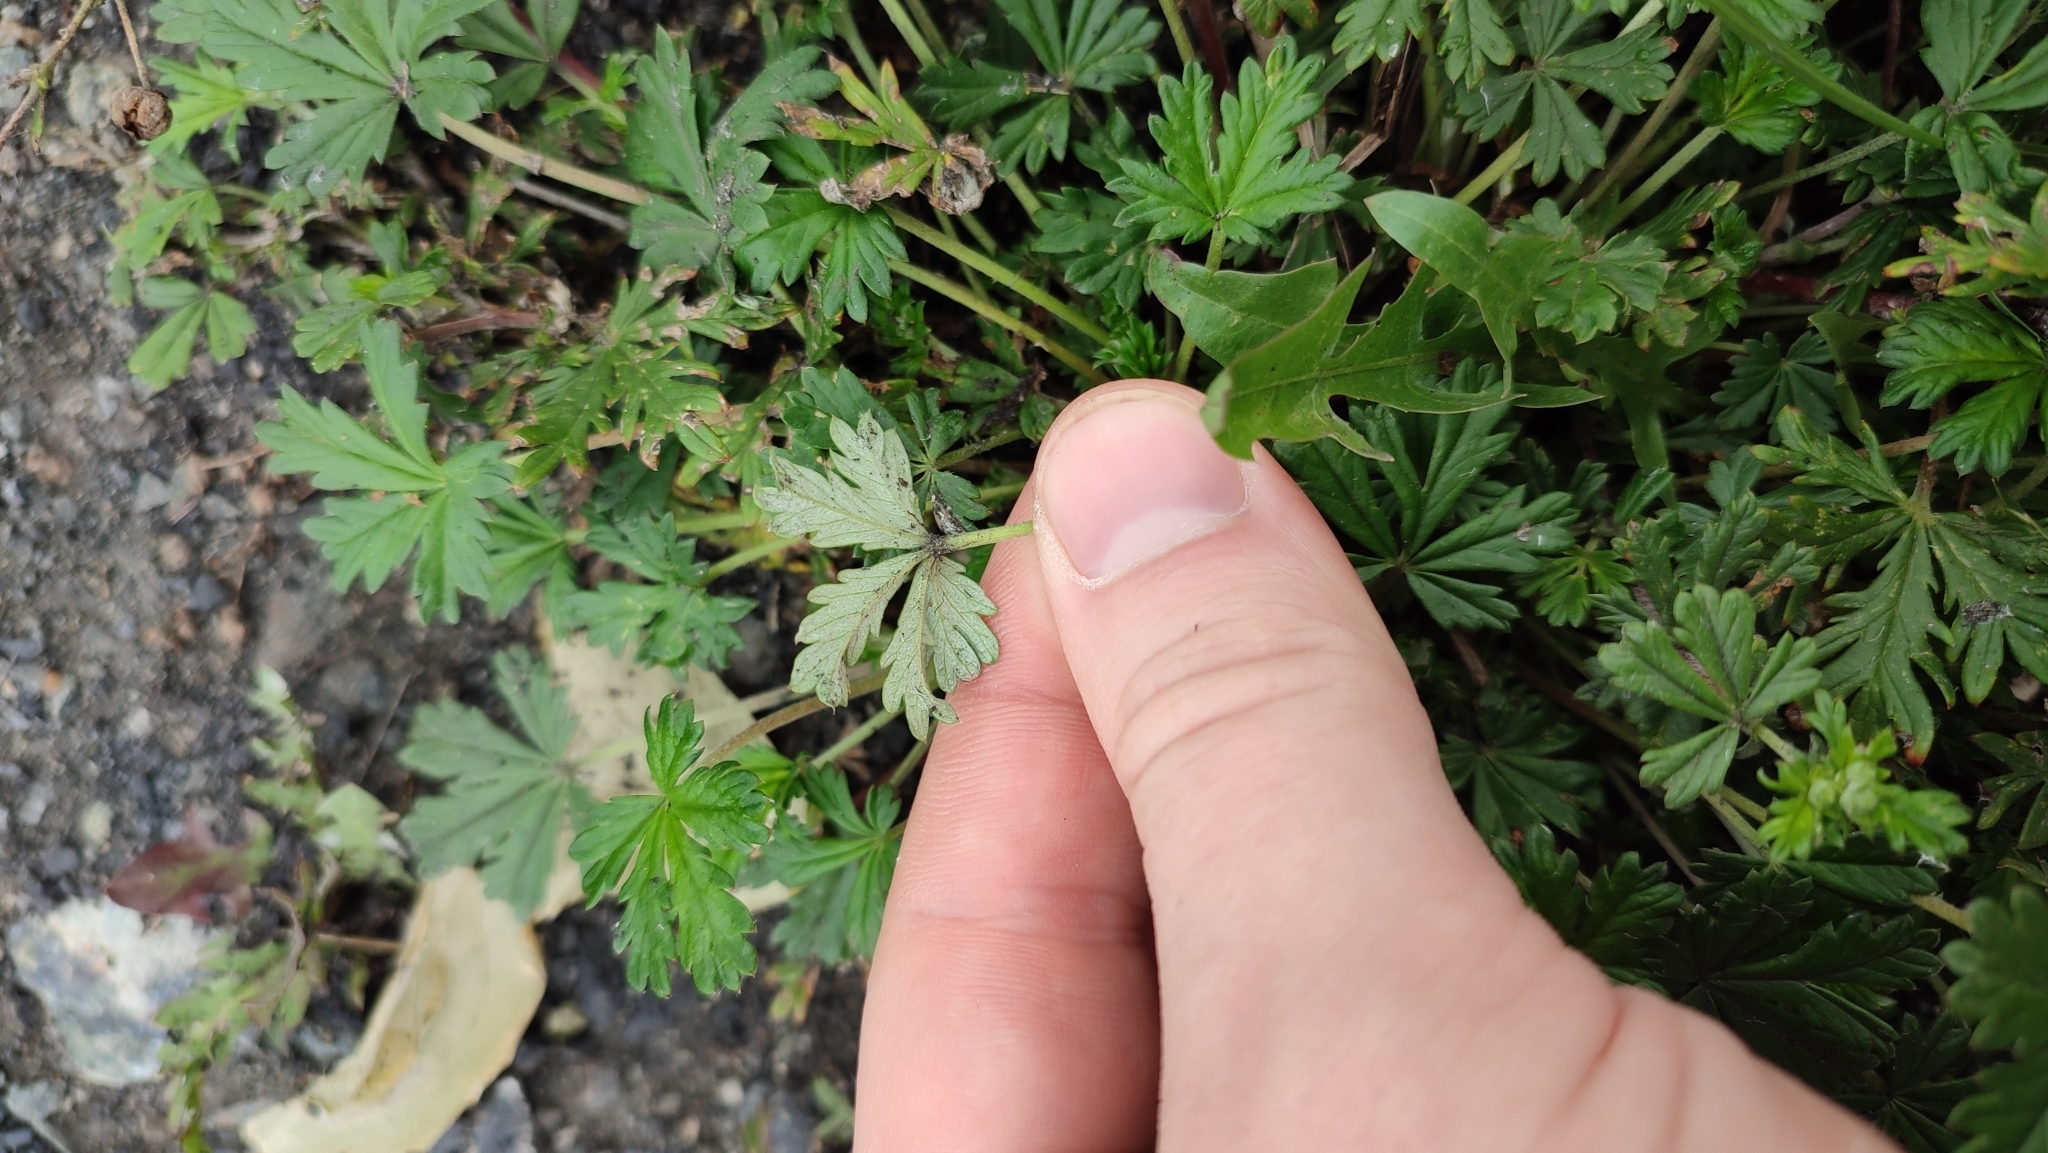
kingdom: Plantae
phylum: Tracheophyta
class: Magnoliopsida
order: Rosales
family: Rosaceae
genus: Potentilla
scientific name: Potentilla argentea
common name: Hoary cinquefoil
